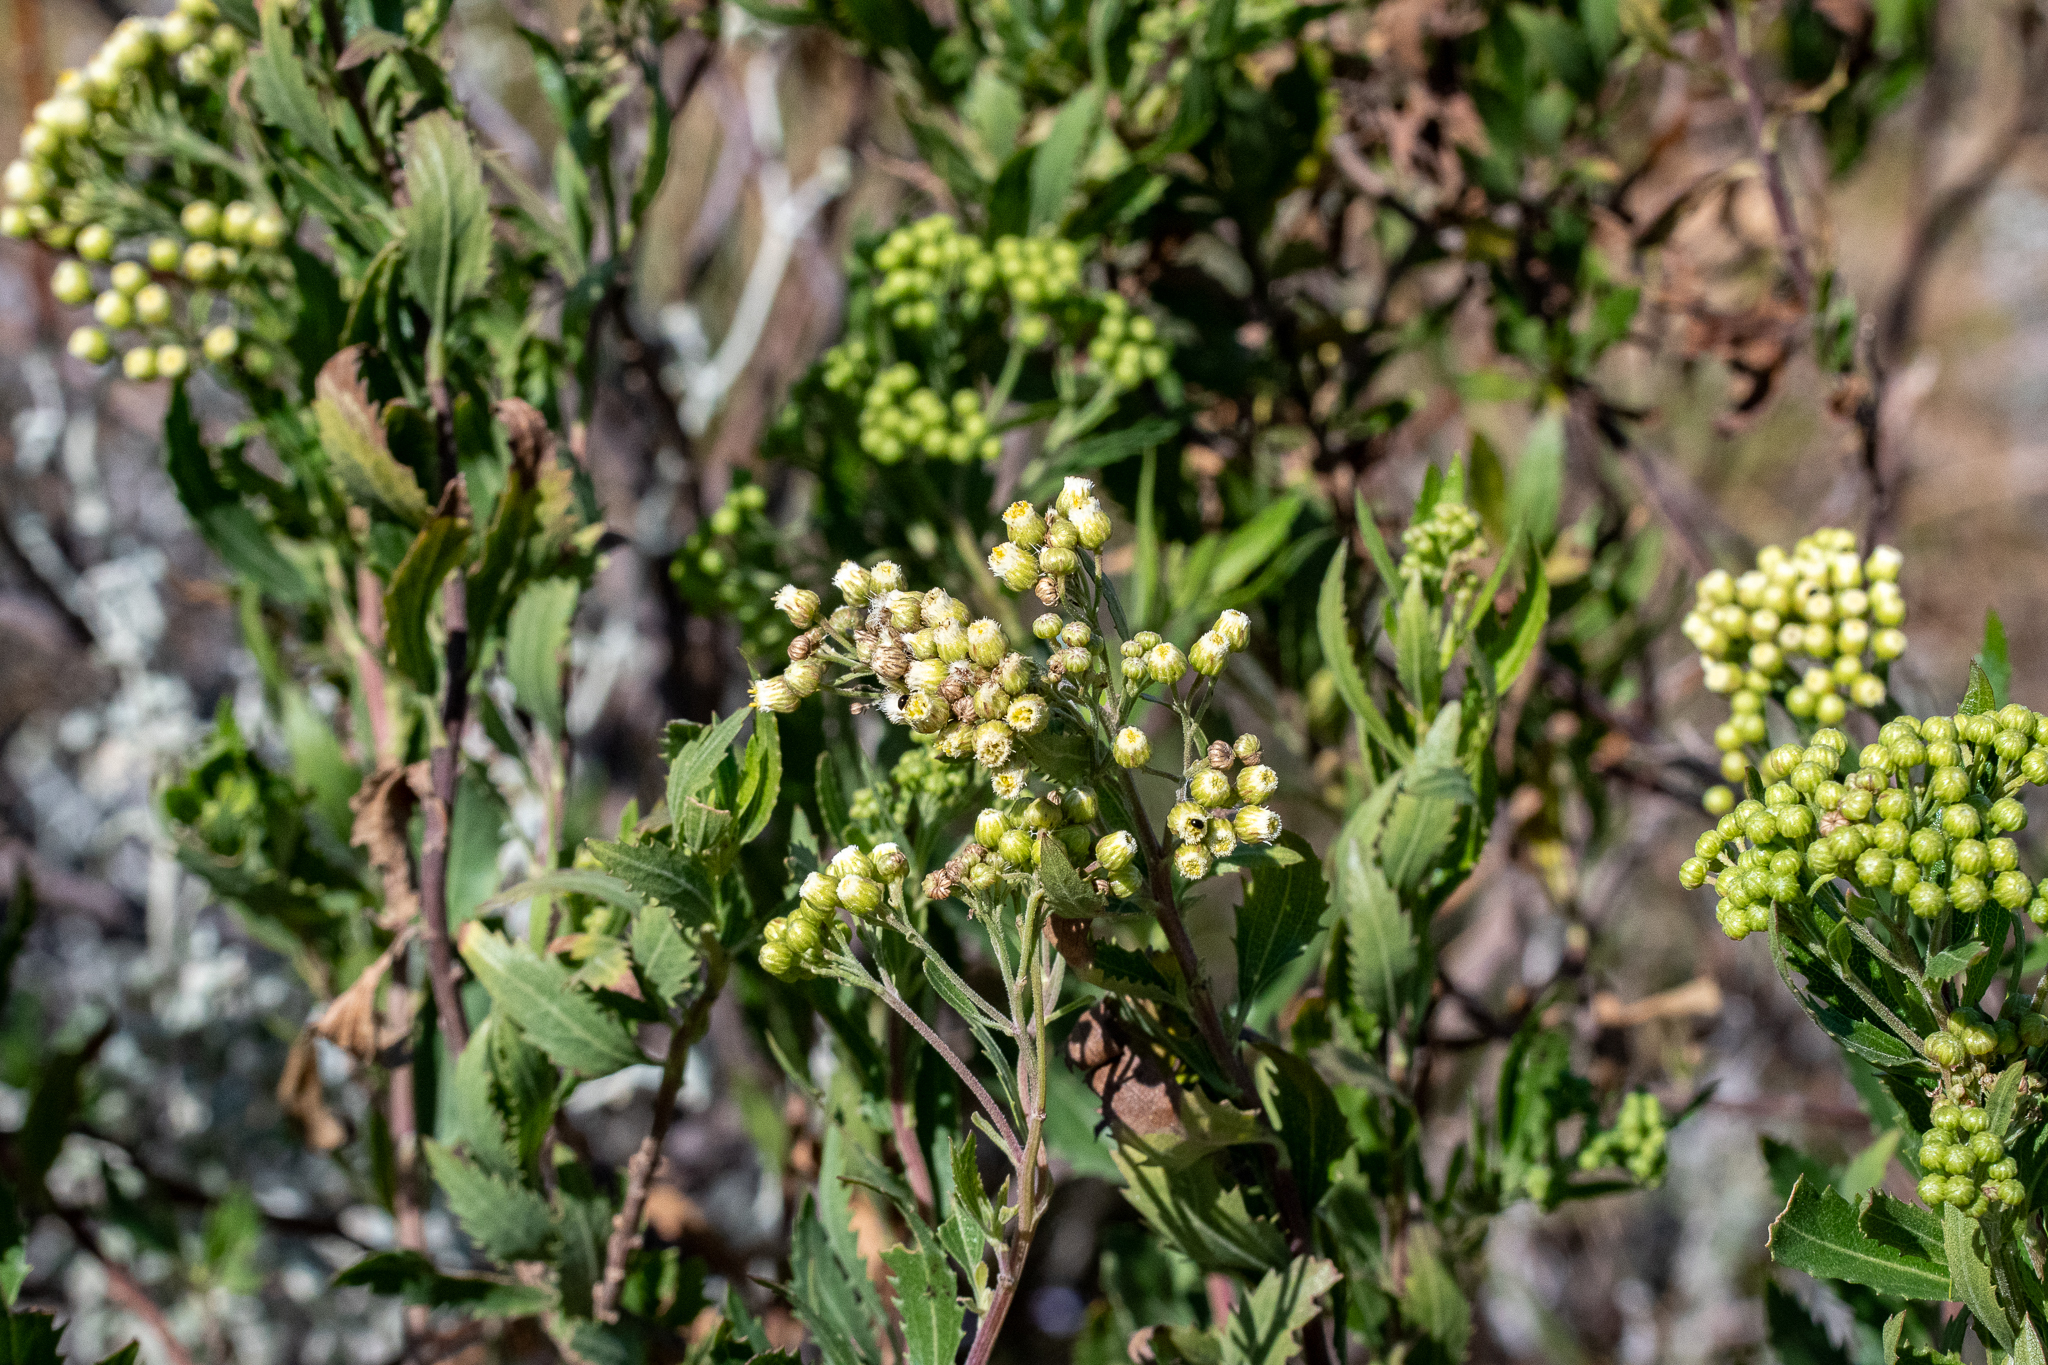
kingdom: Plantae
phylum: Tracheophyta
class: Magnoliopsida
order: Asterales
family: Asteraceae
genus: Nidorella
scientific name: Nidorella ivifolia
